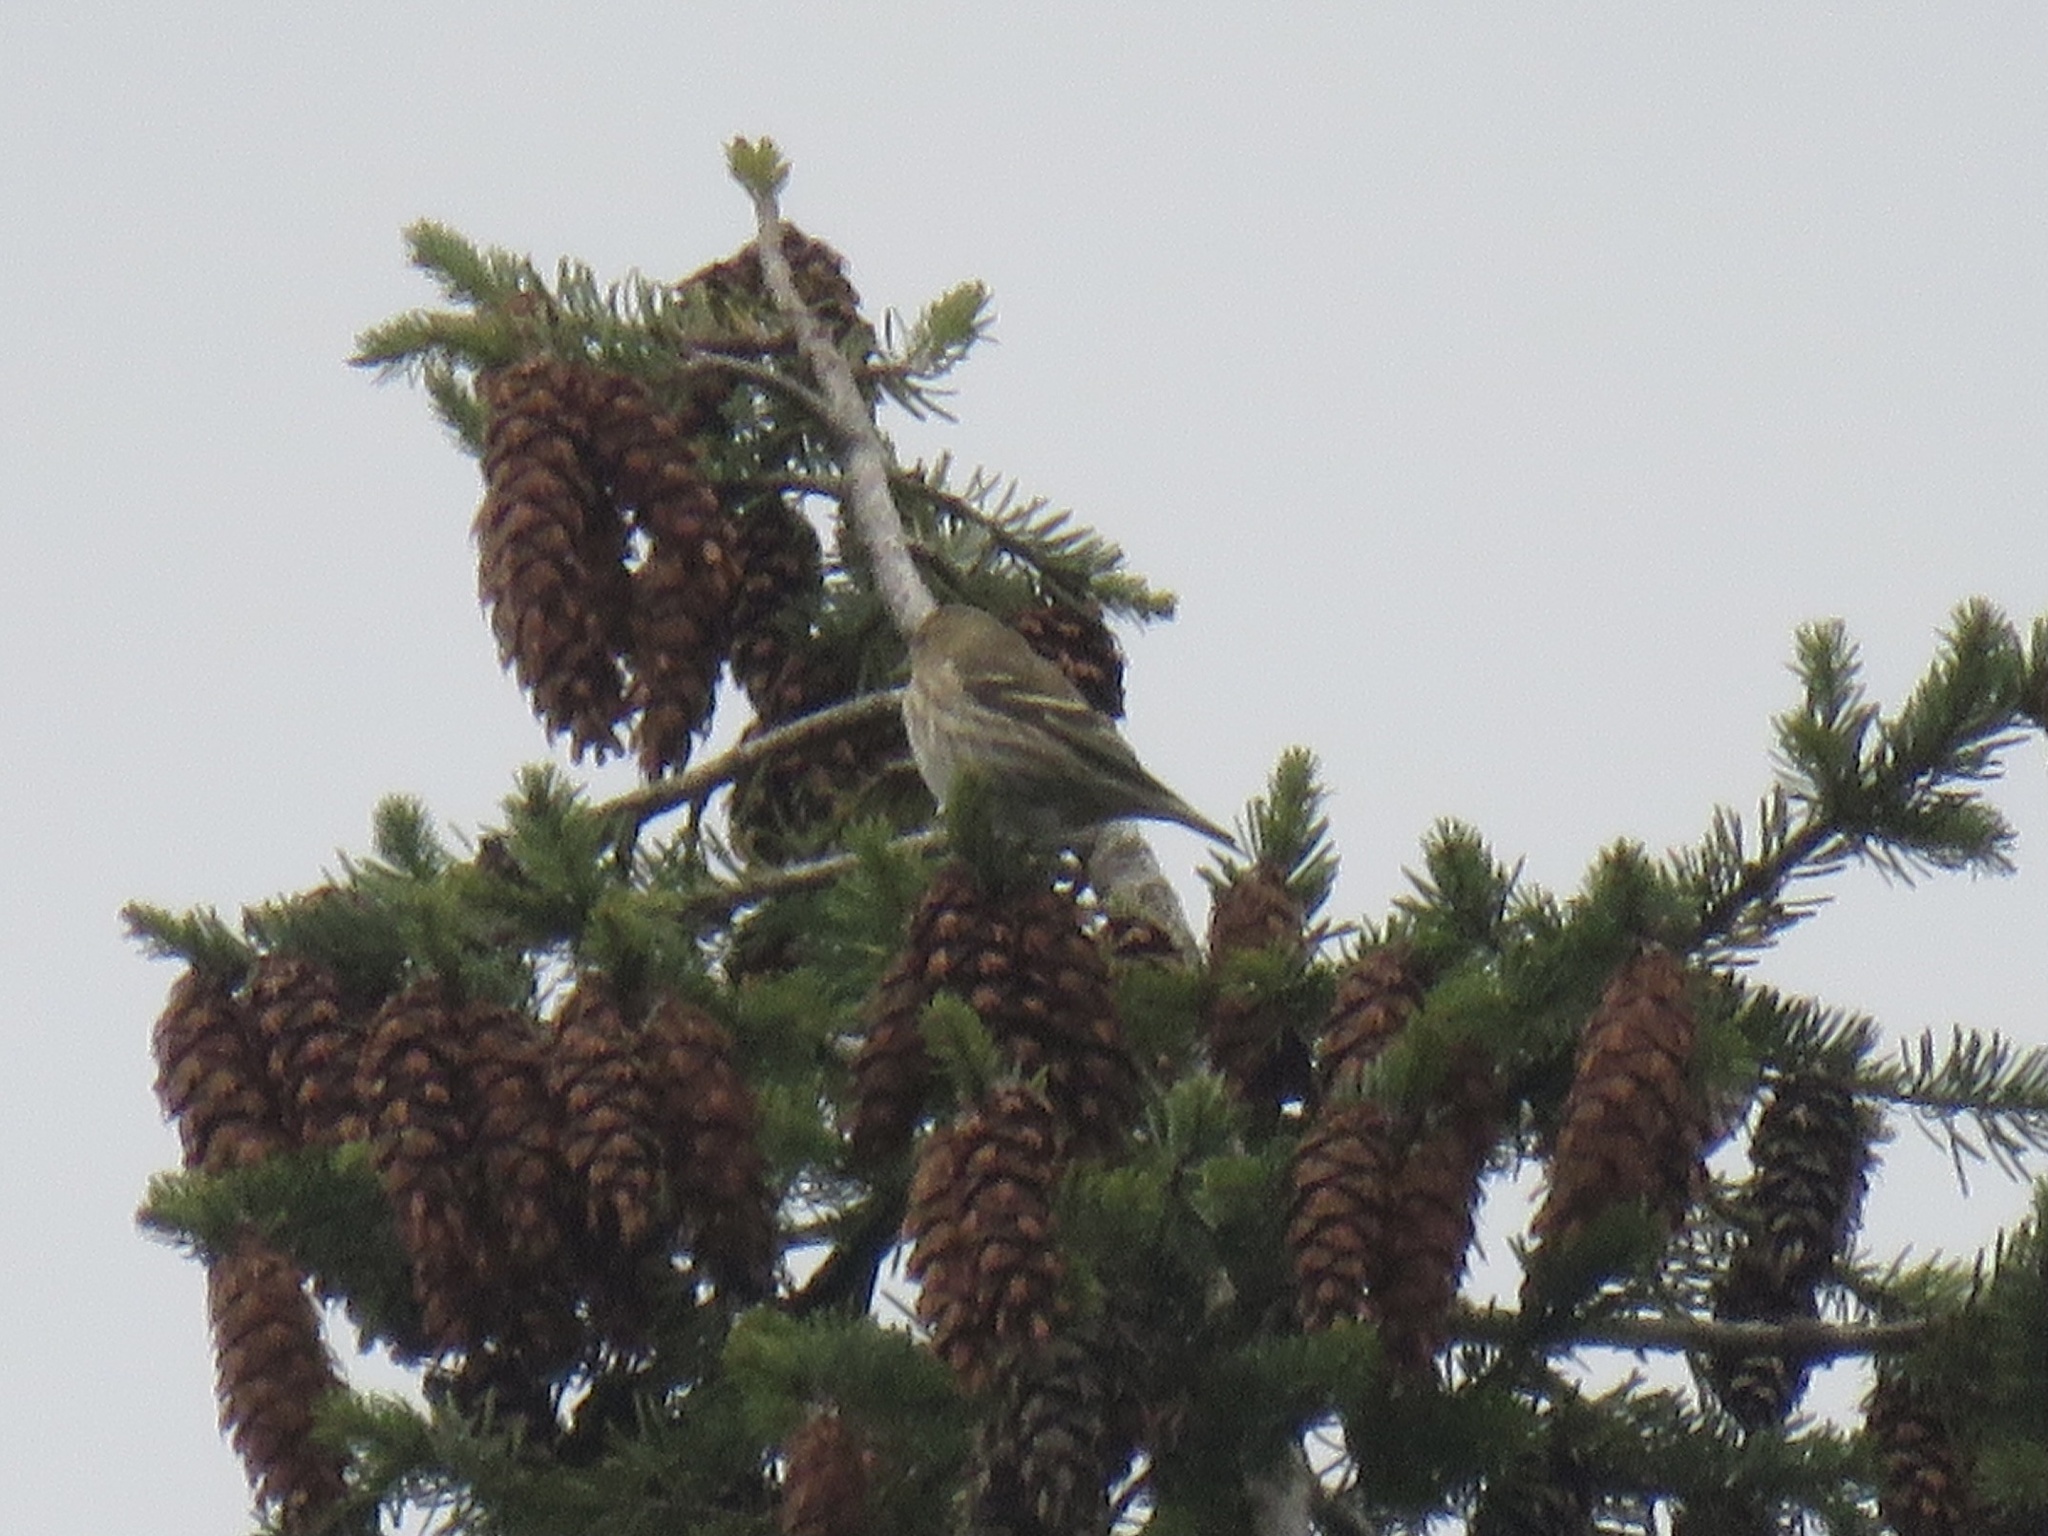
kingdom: Animalia
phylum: Chordata
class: Aves
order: Passeriformes
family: Fringillidae
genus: Spinus
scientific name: Spinus pinus
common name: Pine siskin
